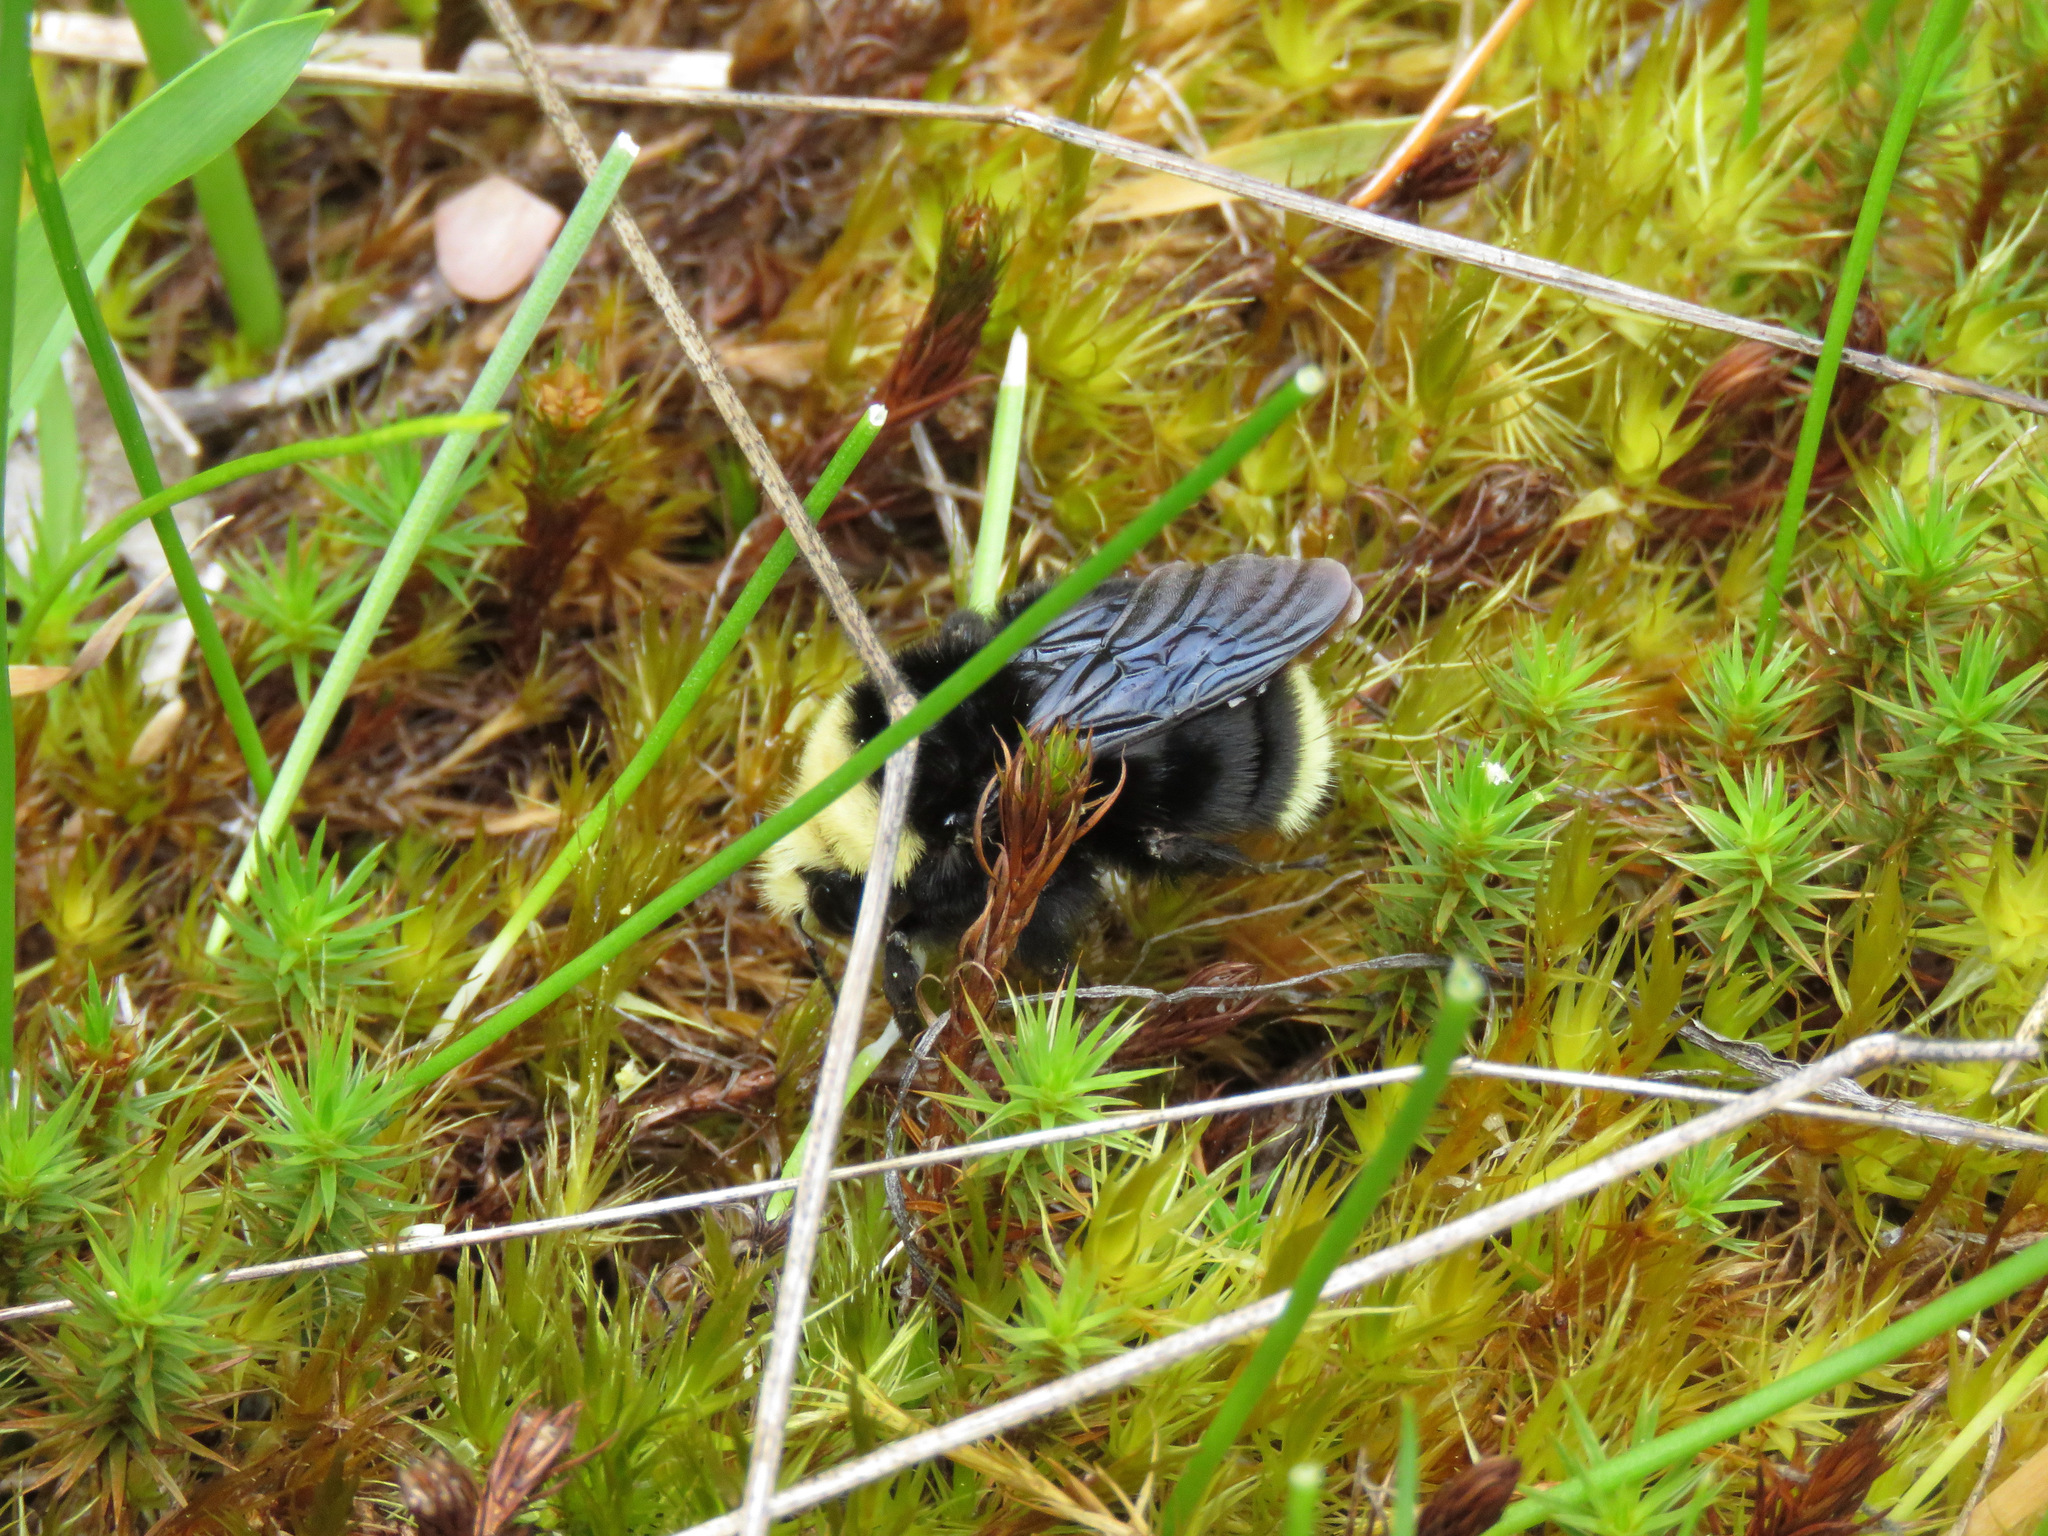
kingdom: Animalia
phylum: Arthropoda
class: Insecta
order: Hymenoptera
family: Apidae
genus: Bombus
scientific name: Bombus vosnesenskii
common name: Vosnesensky bumble bee
